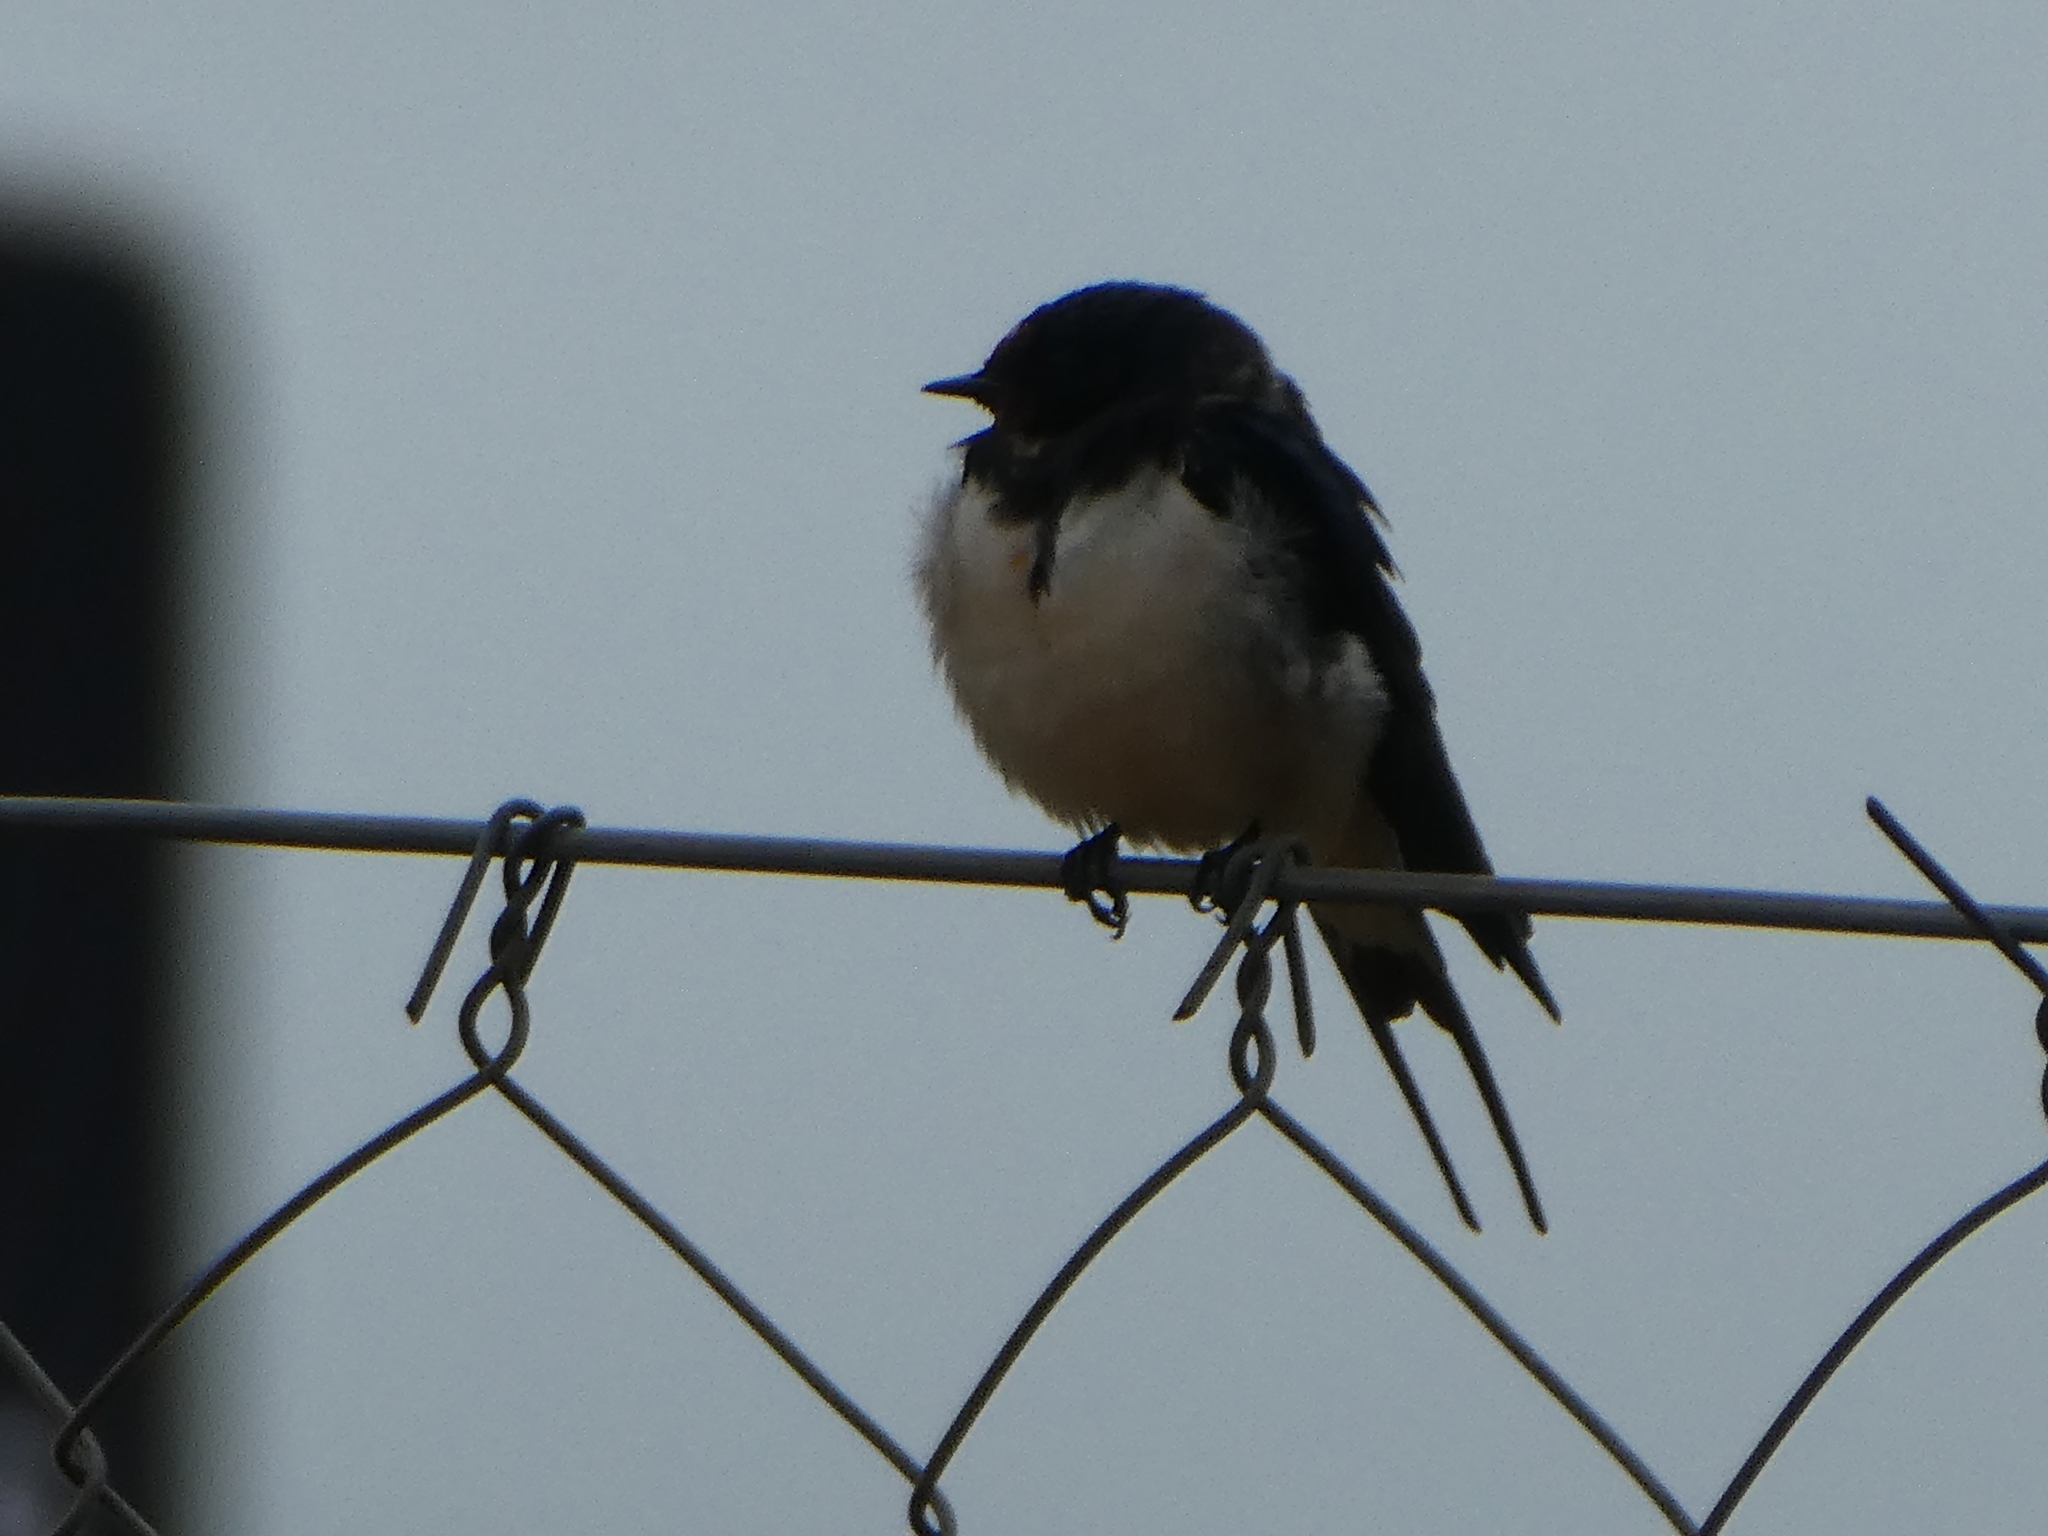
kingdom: Animalia
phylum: Chordata
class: Aves
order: Passeriformes
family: Hirundinidae
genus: Hirundo
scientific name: Hirundo rustica
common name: Barn swallow
